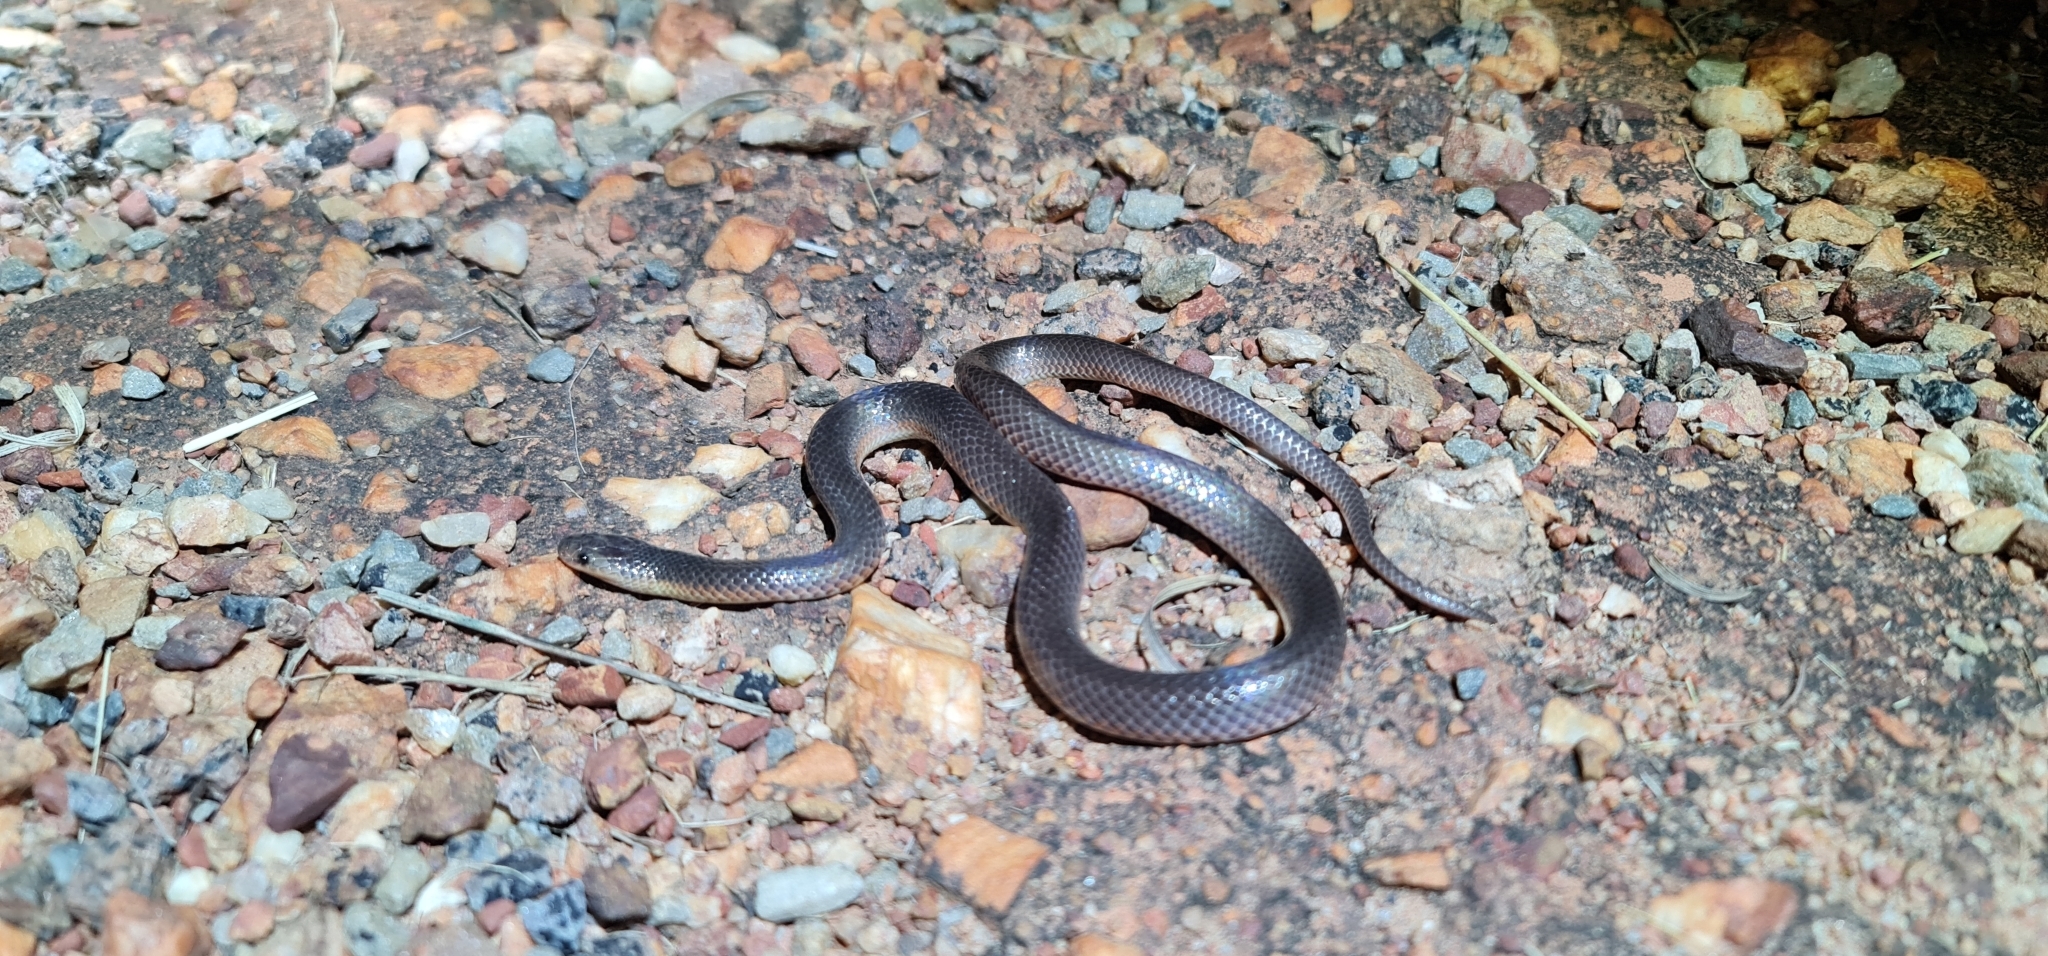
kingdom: Animalia
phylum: Chordata
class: Squamata
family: Elapidae
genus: Cryptophis
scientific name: Cryptophis pallidiceps
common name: Northern small-eyed snake
